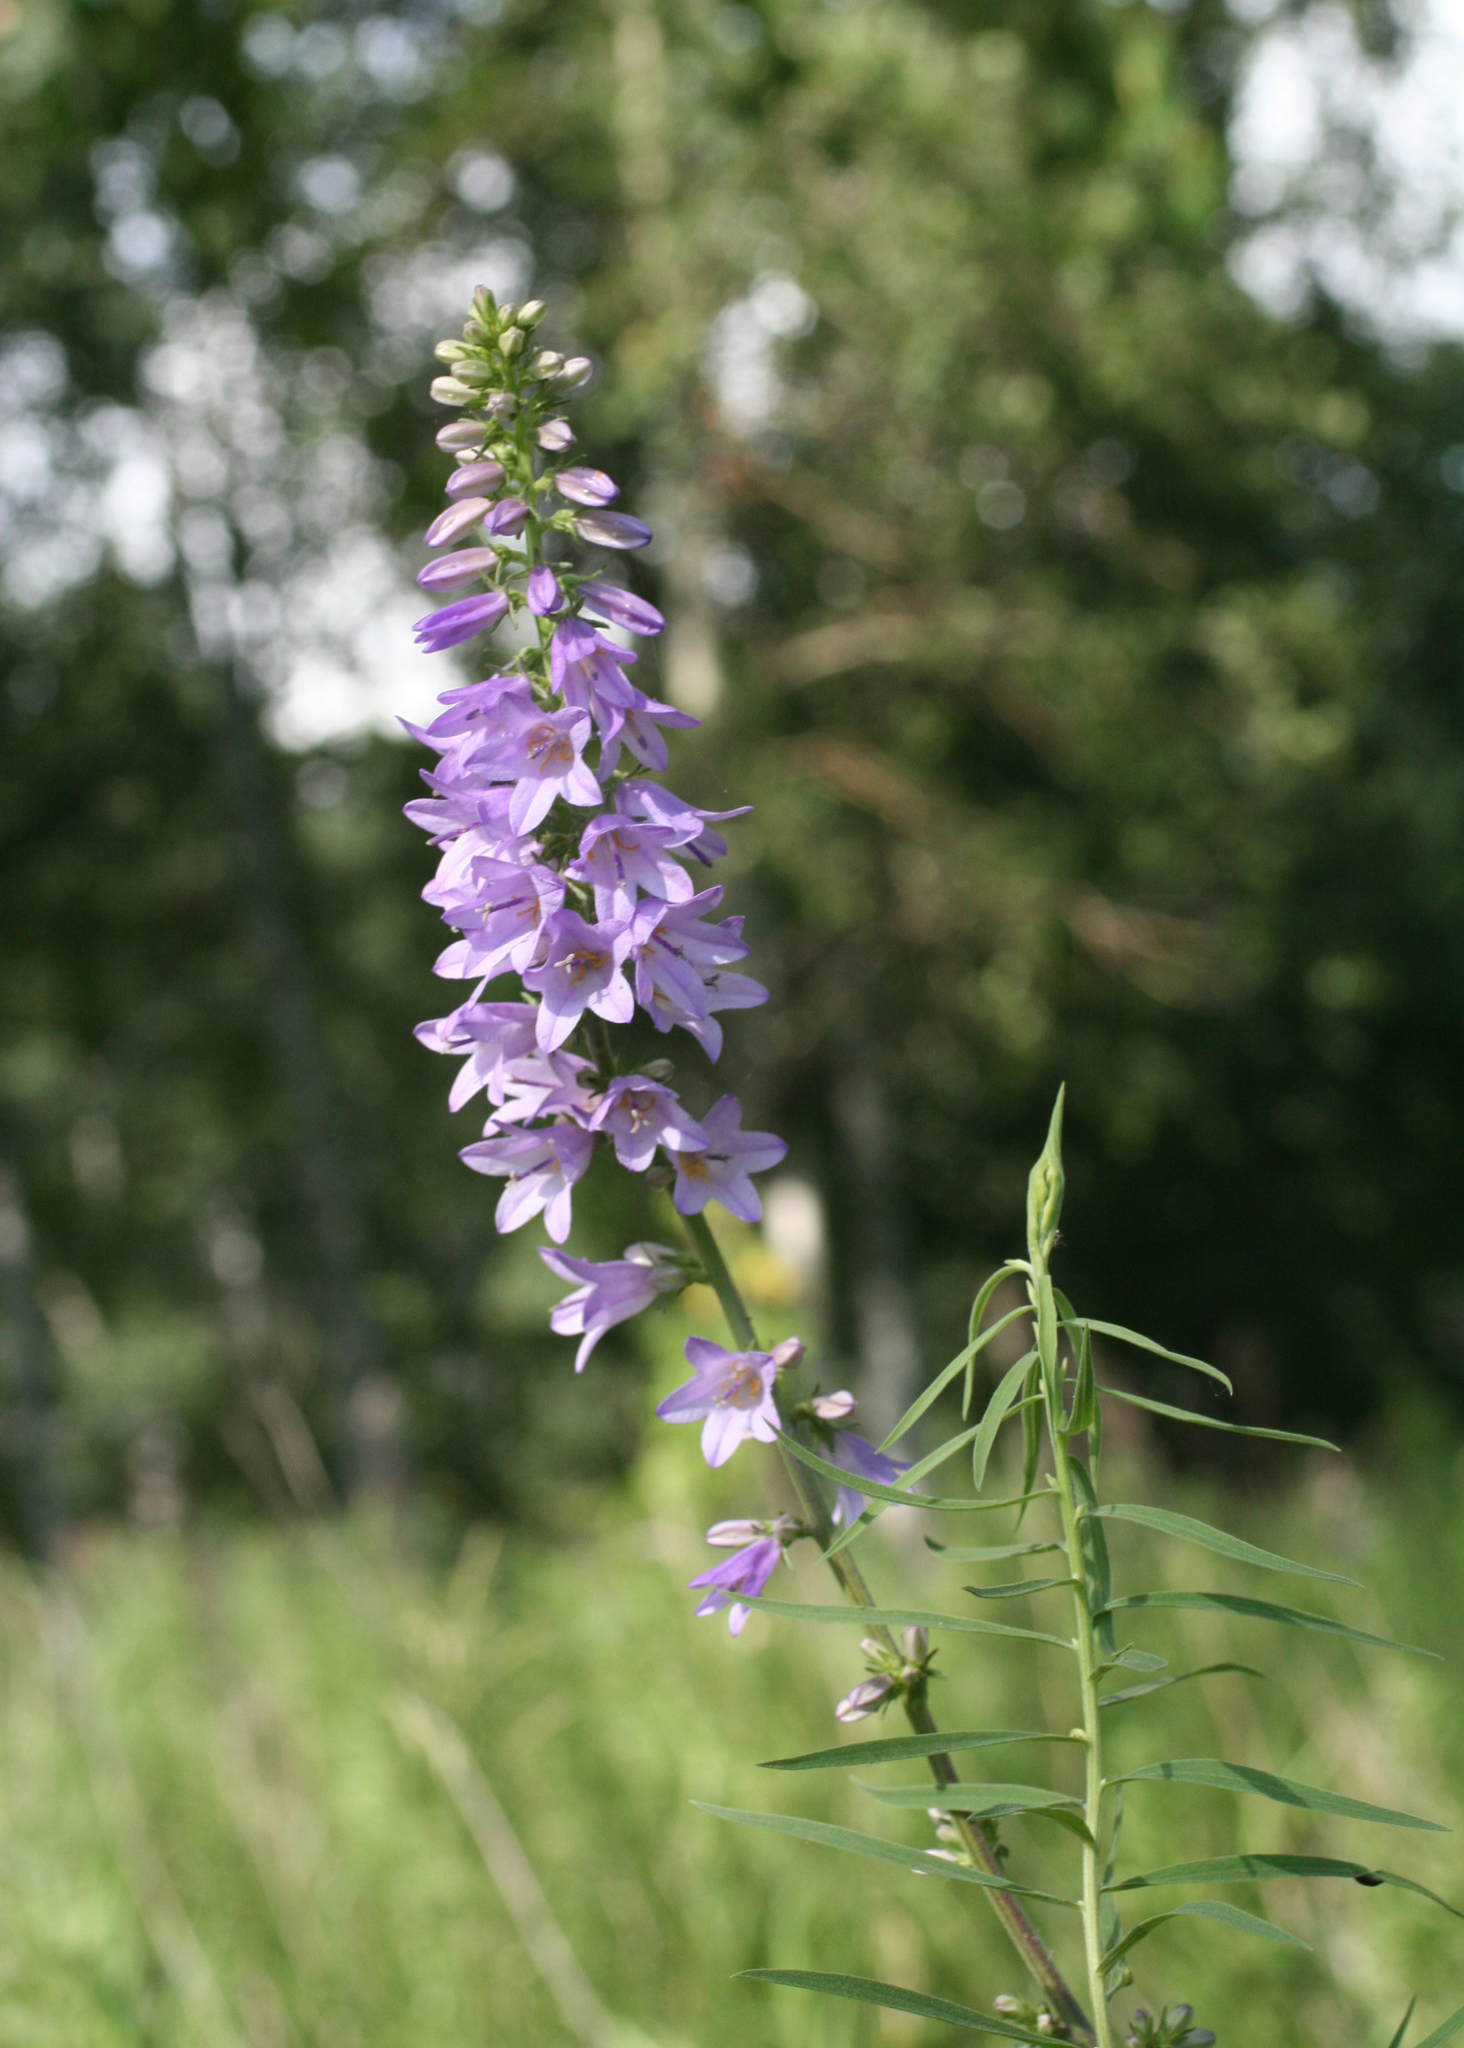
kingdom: Plantae
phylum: Tracheophyta
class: Magnoliopsida
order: Asterales
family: Campanulaceae
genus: Campanula
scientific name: Campanula bononiensis
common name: Pale bellflower
